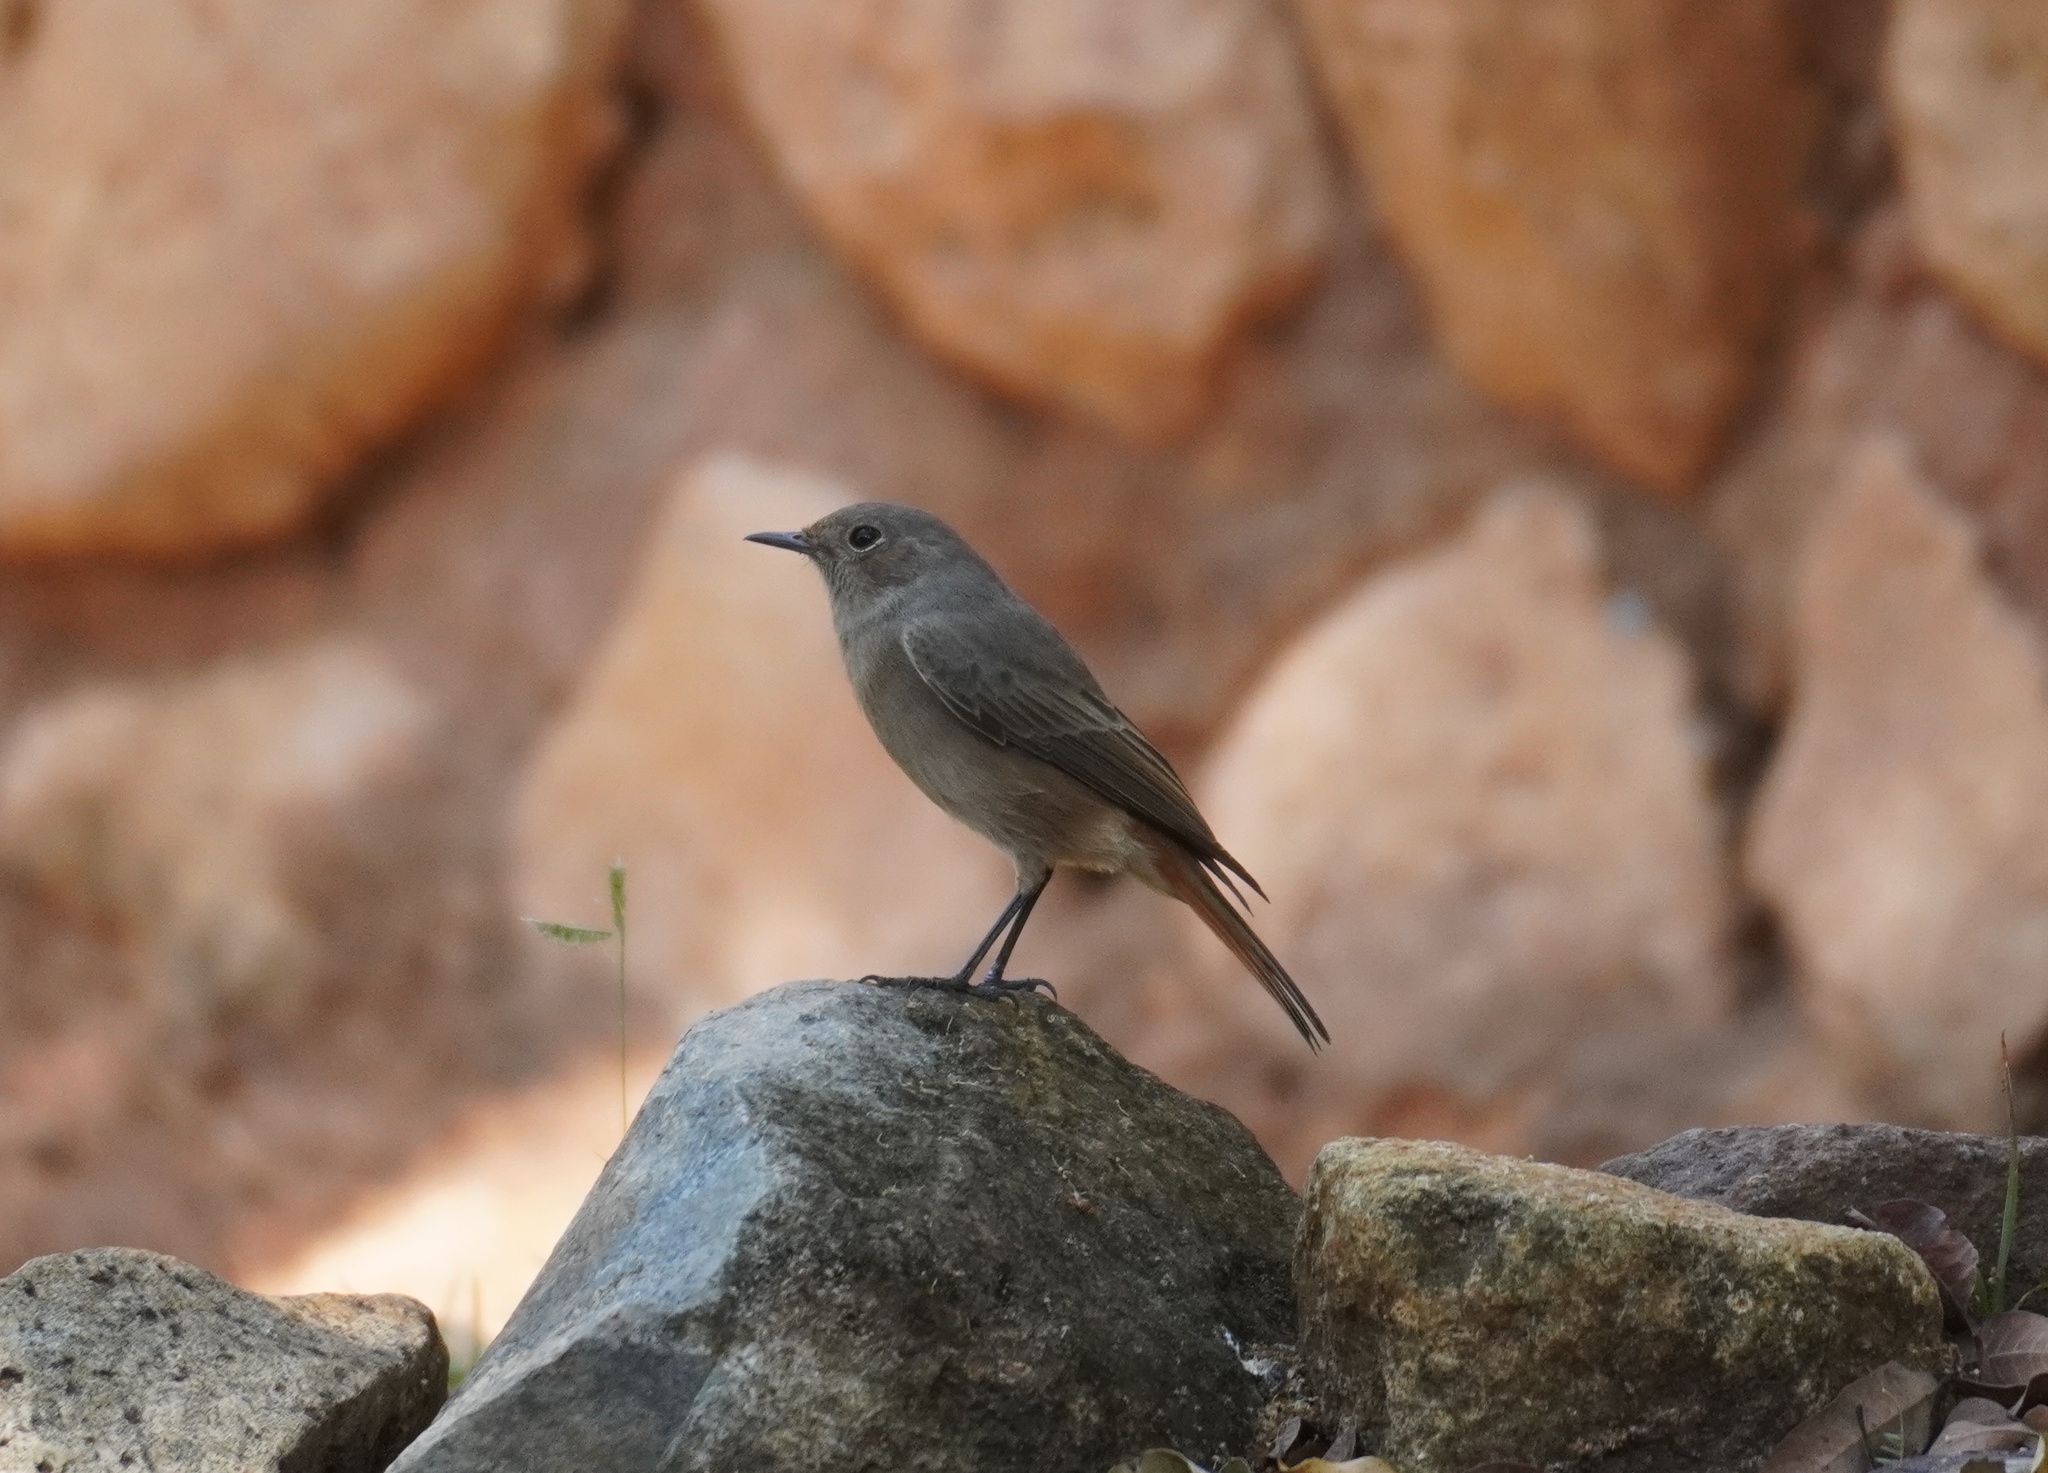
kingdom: Animalia
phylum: Chordata
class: Aves
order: Passeriformes
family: Muscicapidae
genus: Oenanthe
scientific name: Oenanthe familiaris
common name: Familiar chat
